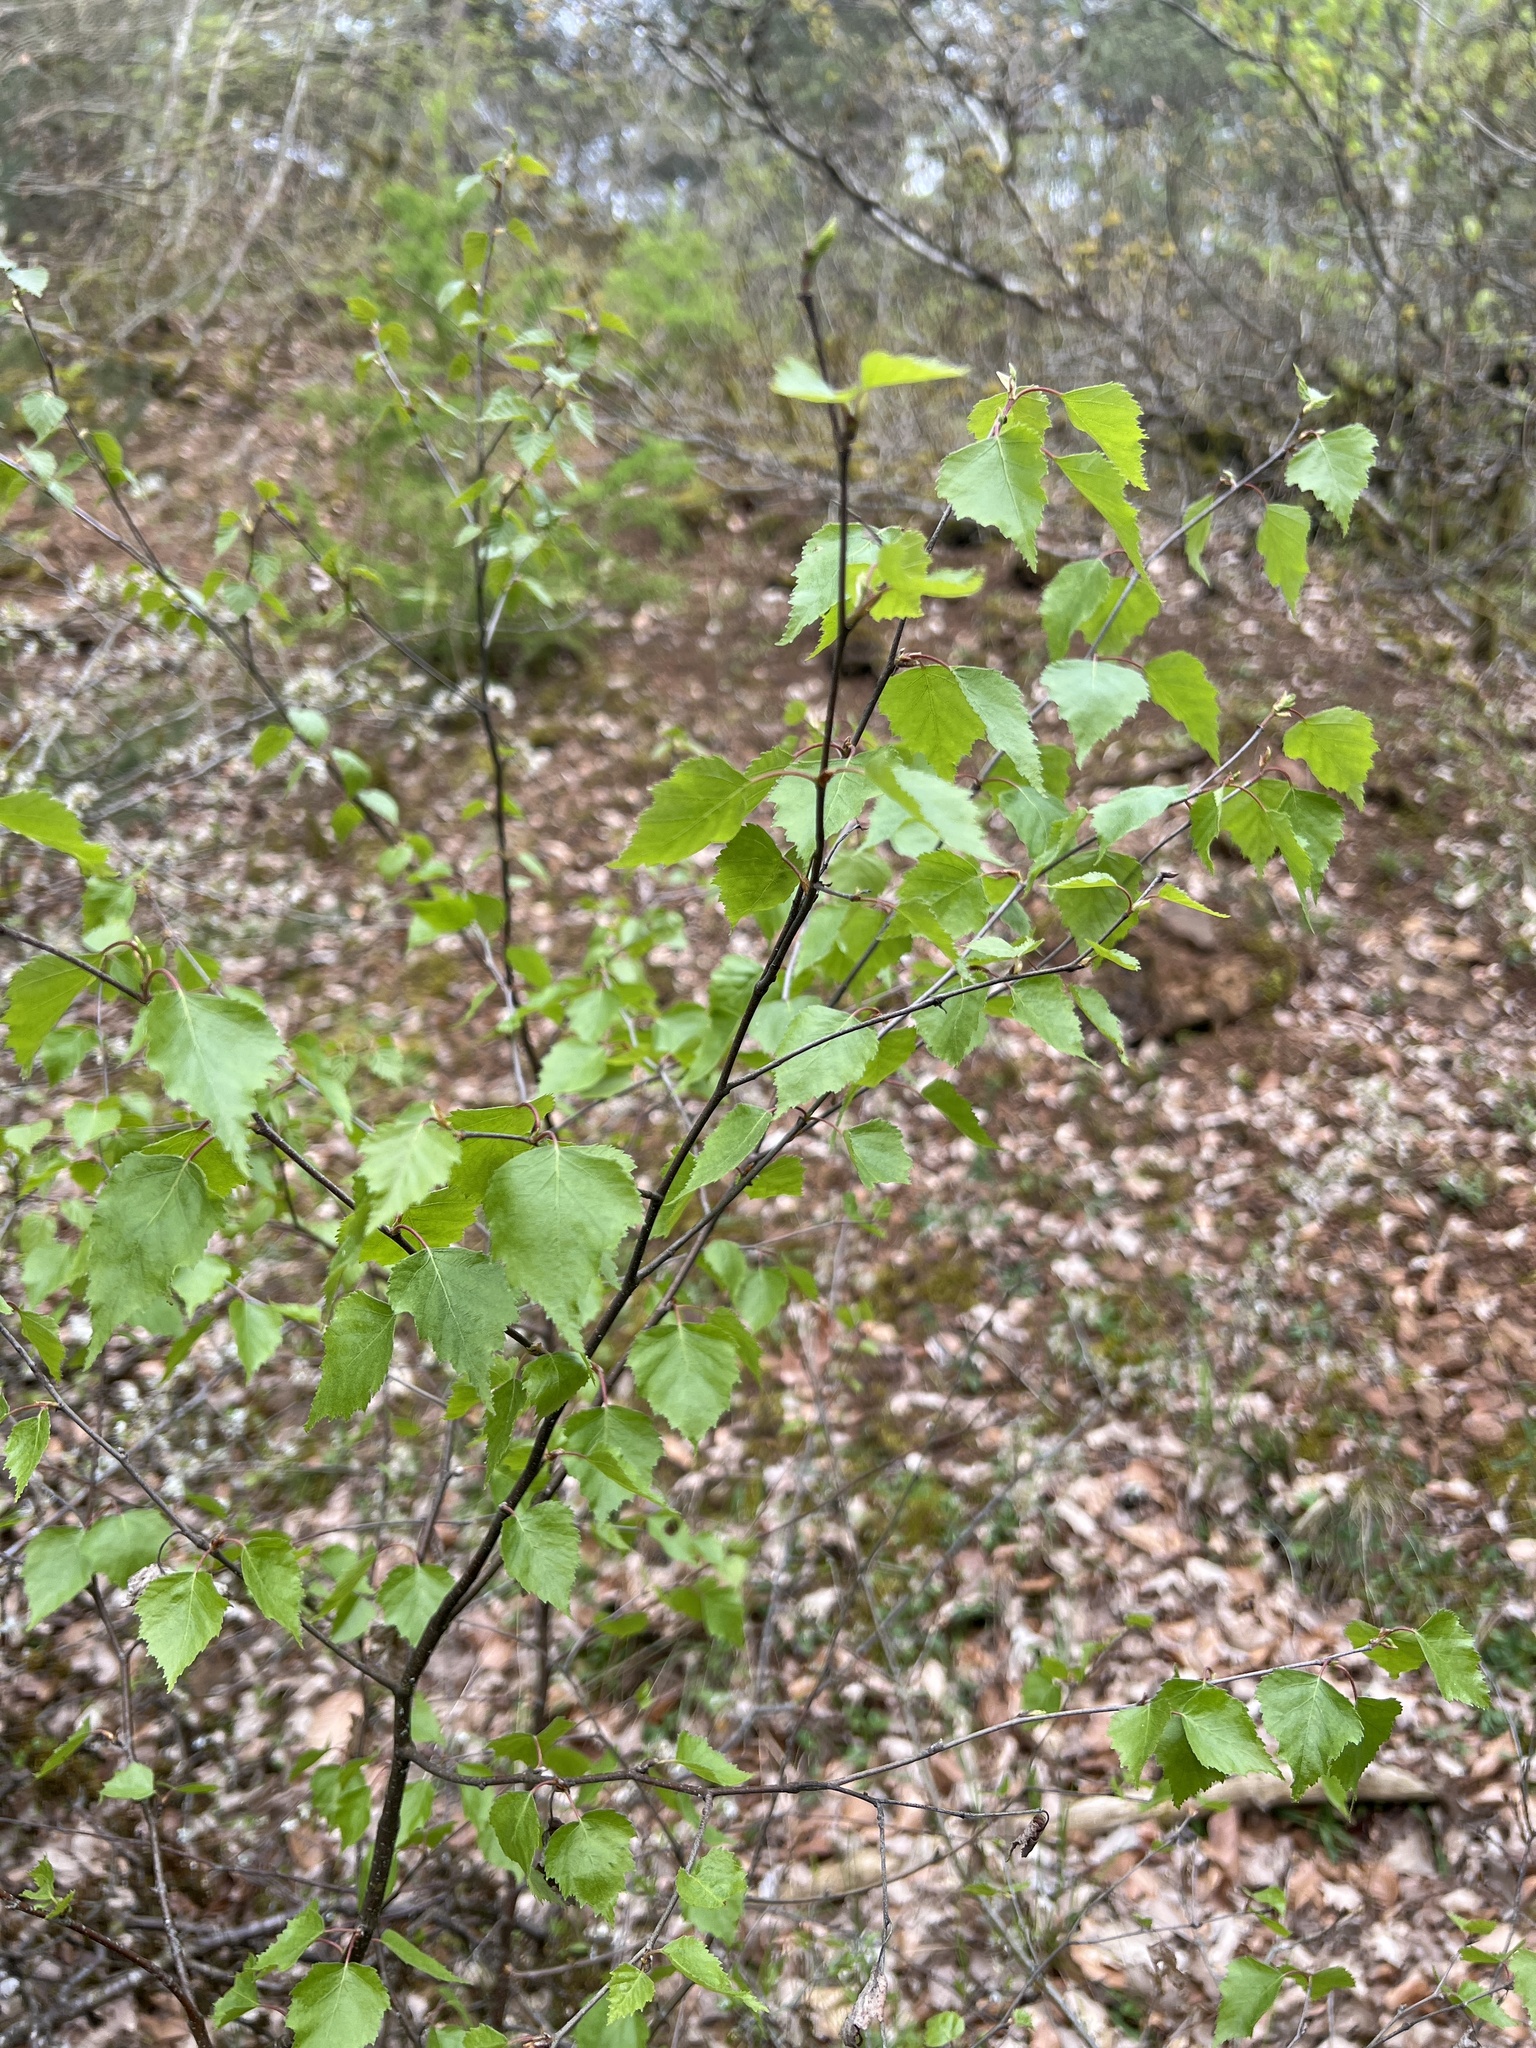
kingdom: Plantae
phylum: Tracheophyta
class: Magnoliopsida
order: Fagales
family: Betulaceae
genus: Betula
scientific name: Betula pendula
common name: Silver birch
